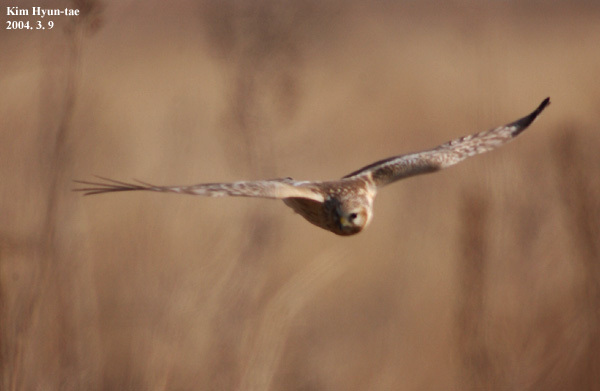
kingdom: Animalia
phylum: Chordata
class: Aves
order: Accipitriformes
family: Accipitridae
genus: Circus
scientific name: Circus spilonotus
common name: Eastern marsh-harrier
